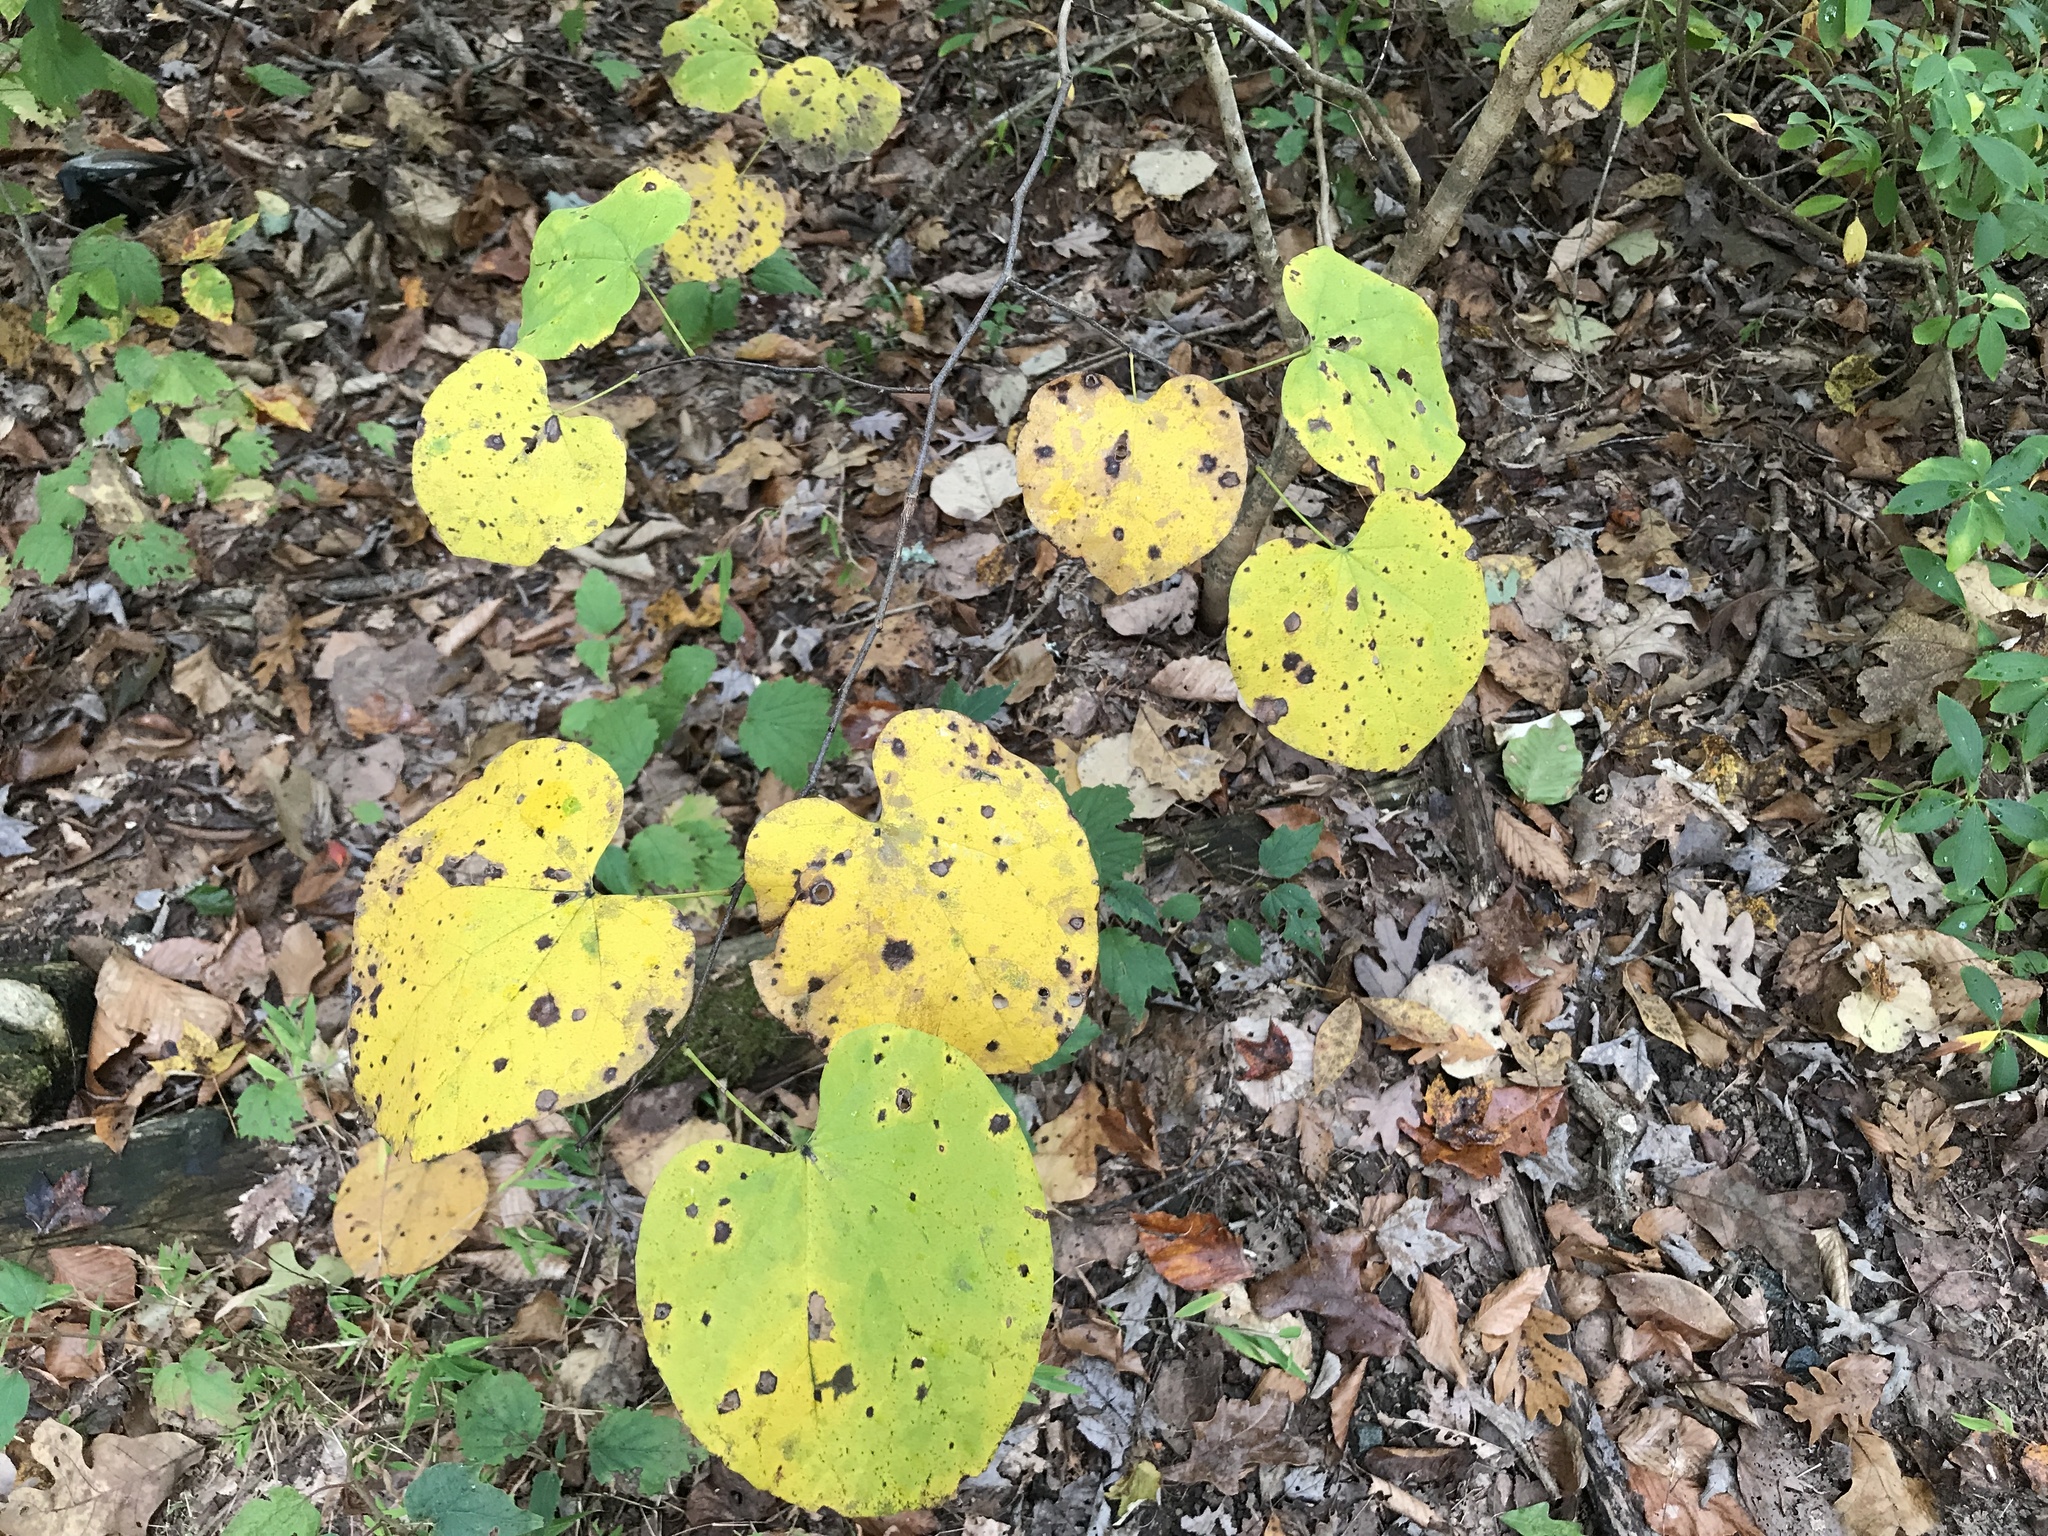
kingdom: Plantae
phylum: Tracheophyta
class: Magnoliopsida
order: Fabales
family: Fabaceae
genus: Cercis
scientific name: Cercis canadensis
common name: Eastern redbud
